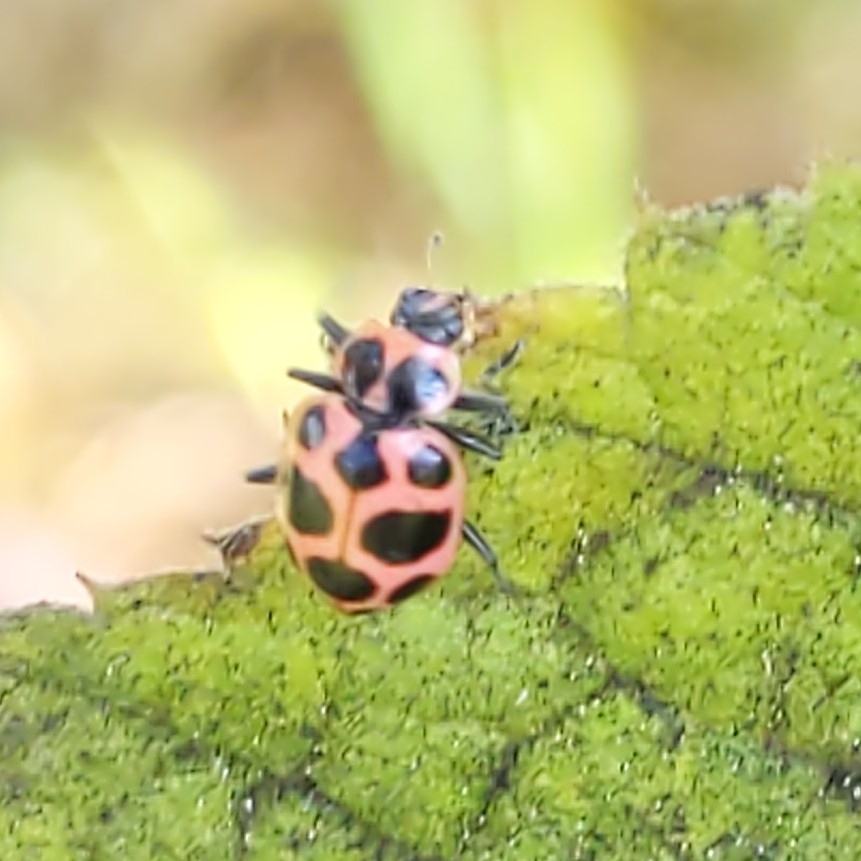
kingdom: Animalia
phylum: Arthropoda
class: Insecta
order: Coleoptera
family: Coccinellidae
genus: Coleomegilla
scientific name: Coleomegilla maculata
